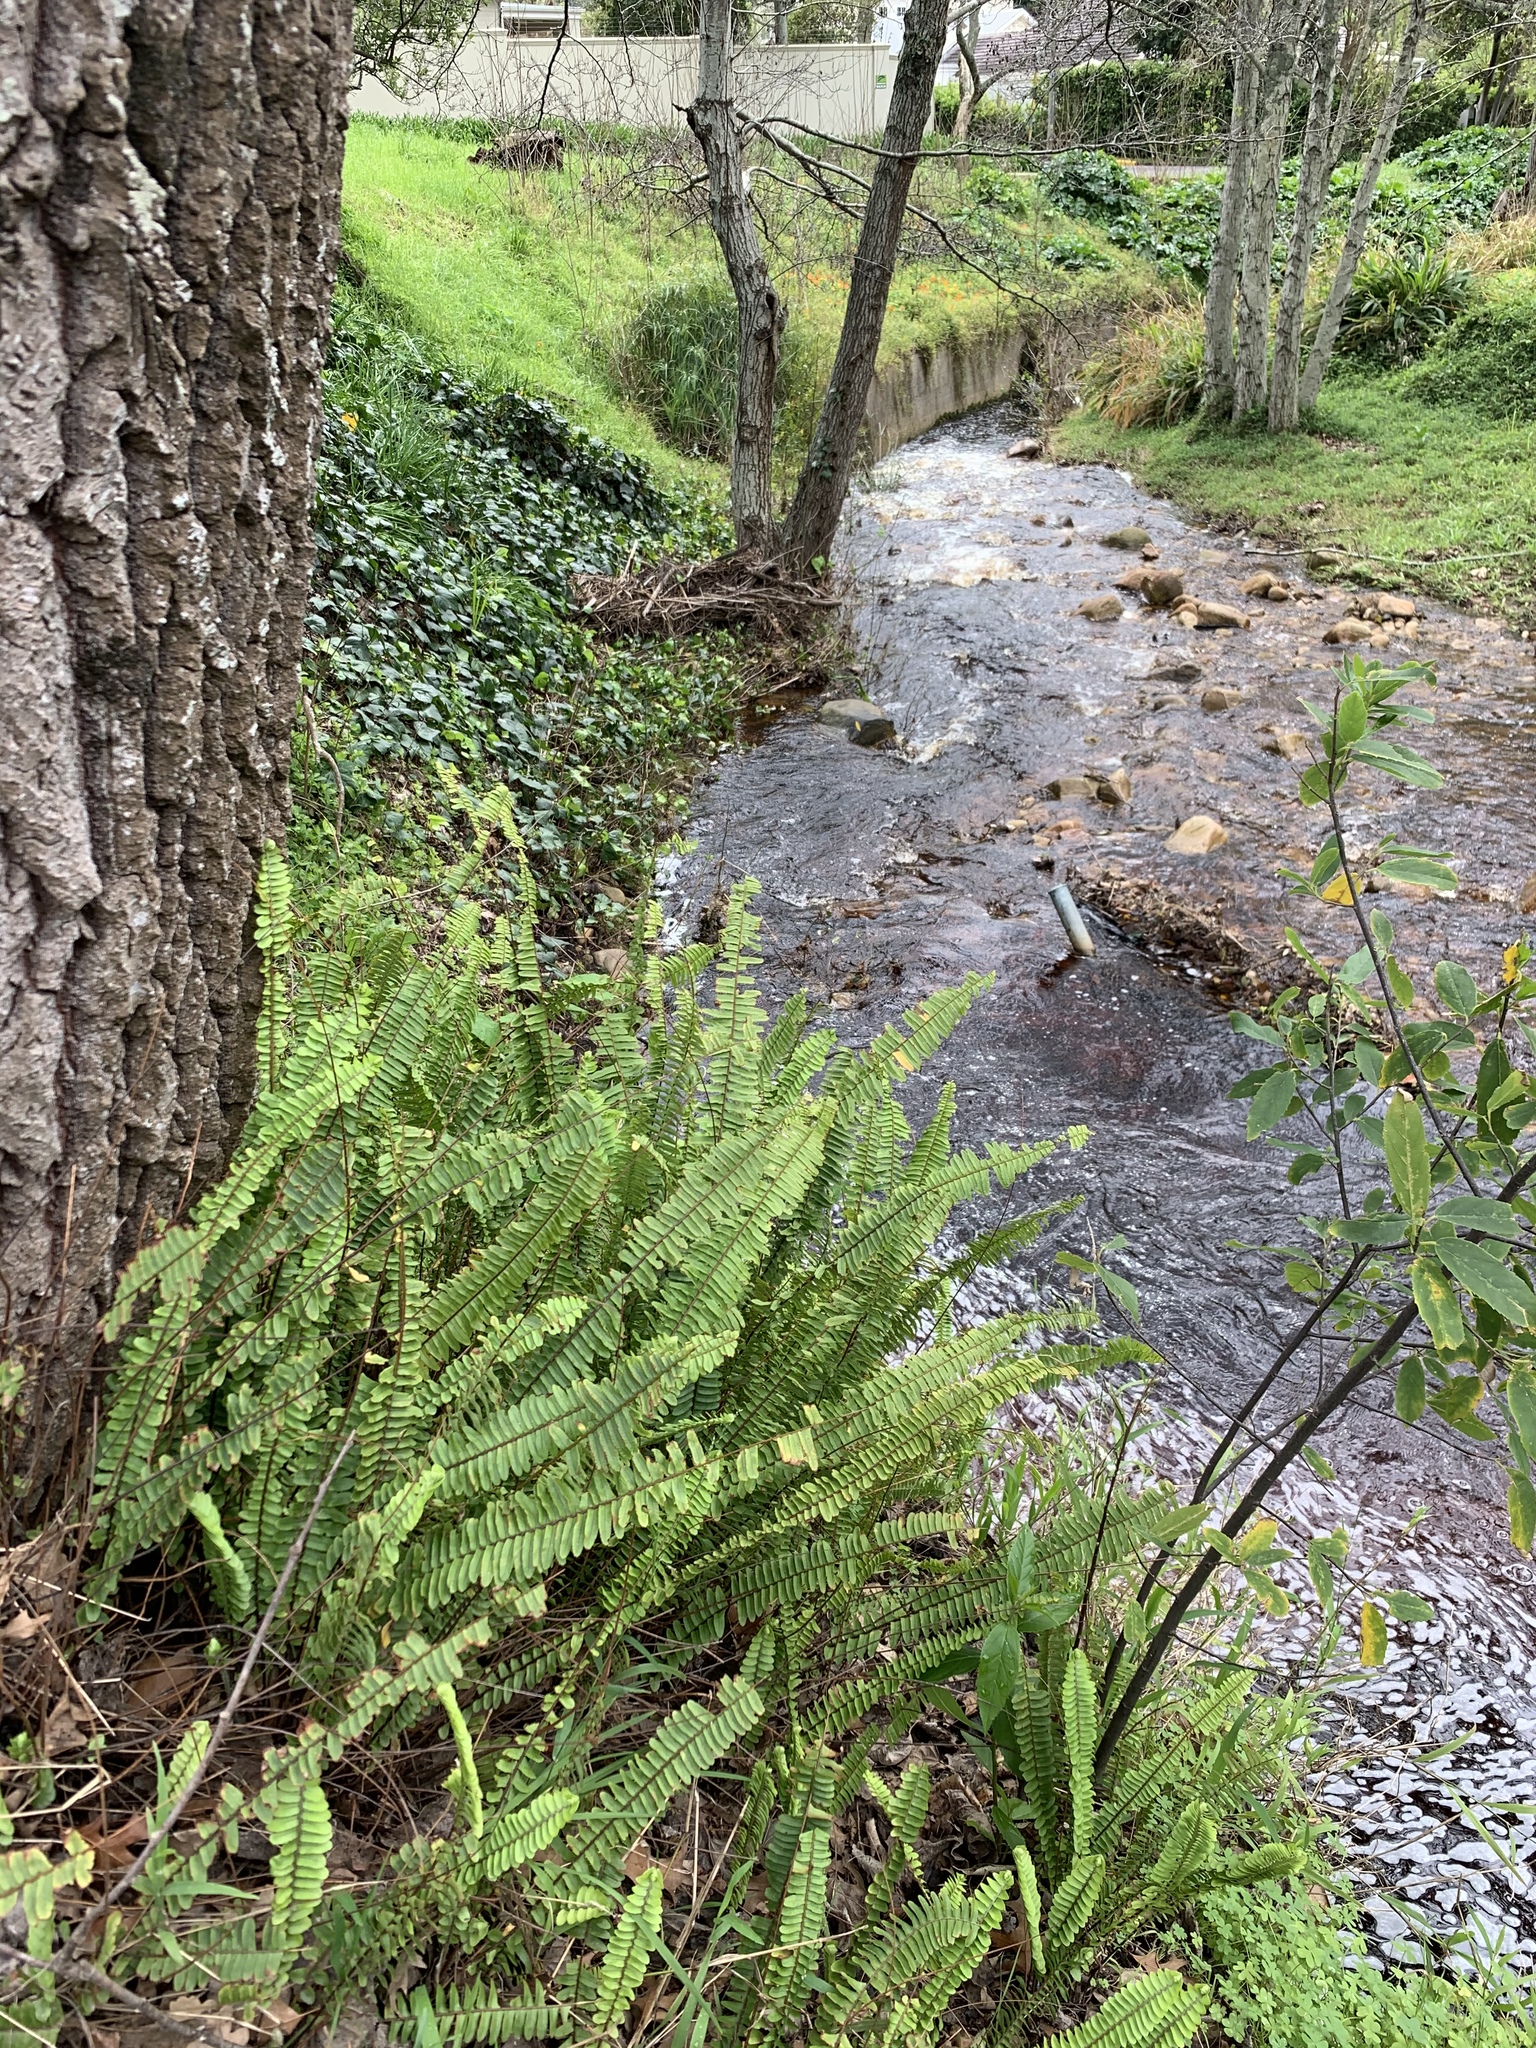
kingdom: Plantae
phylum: Tracheophyta
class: Polypodiopsida
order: Polypodiales
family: Nephrolepidaceae
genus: Nephrolepis
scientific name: Nephrolepis cordifolia
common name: Narrow swordfern
